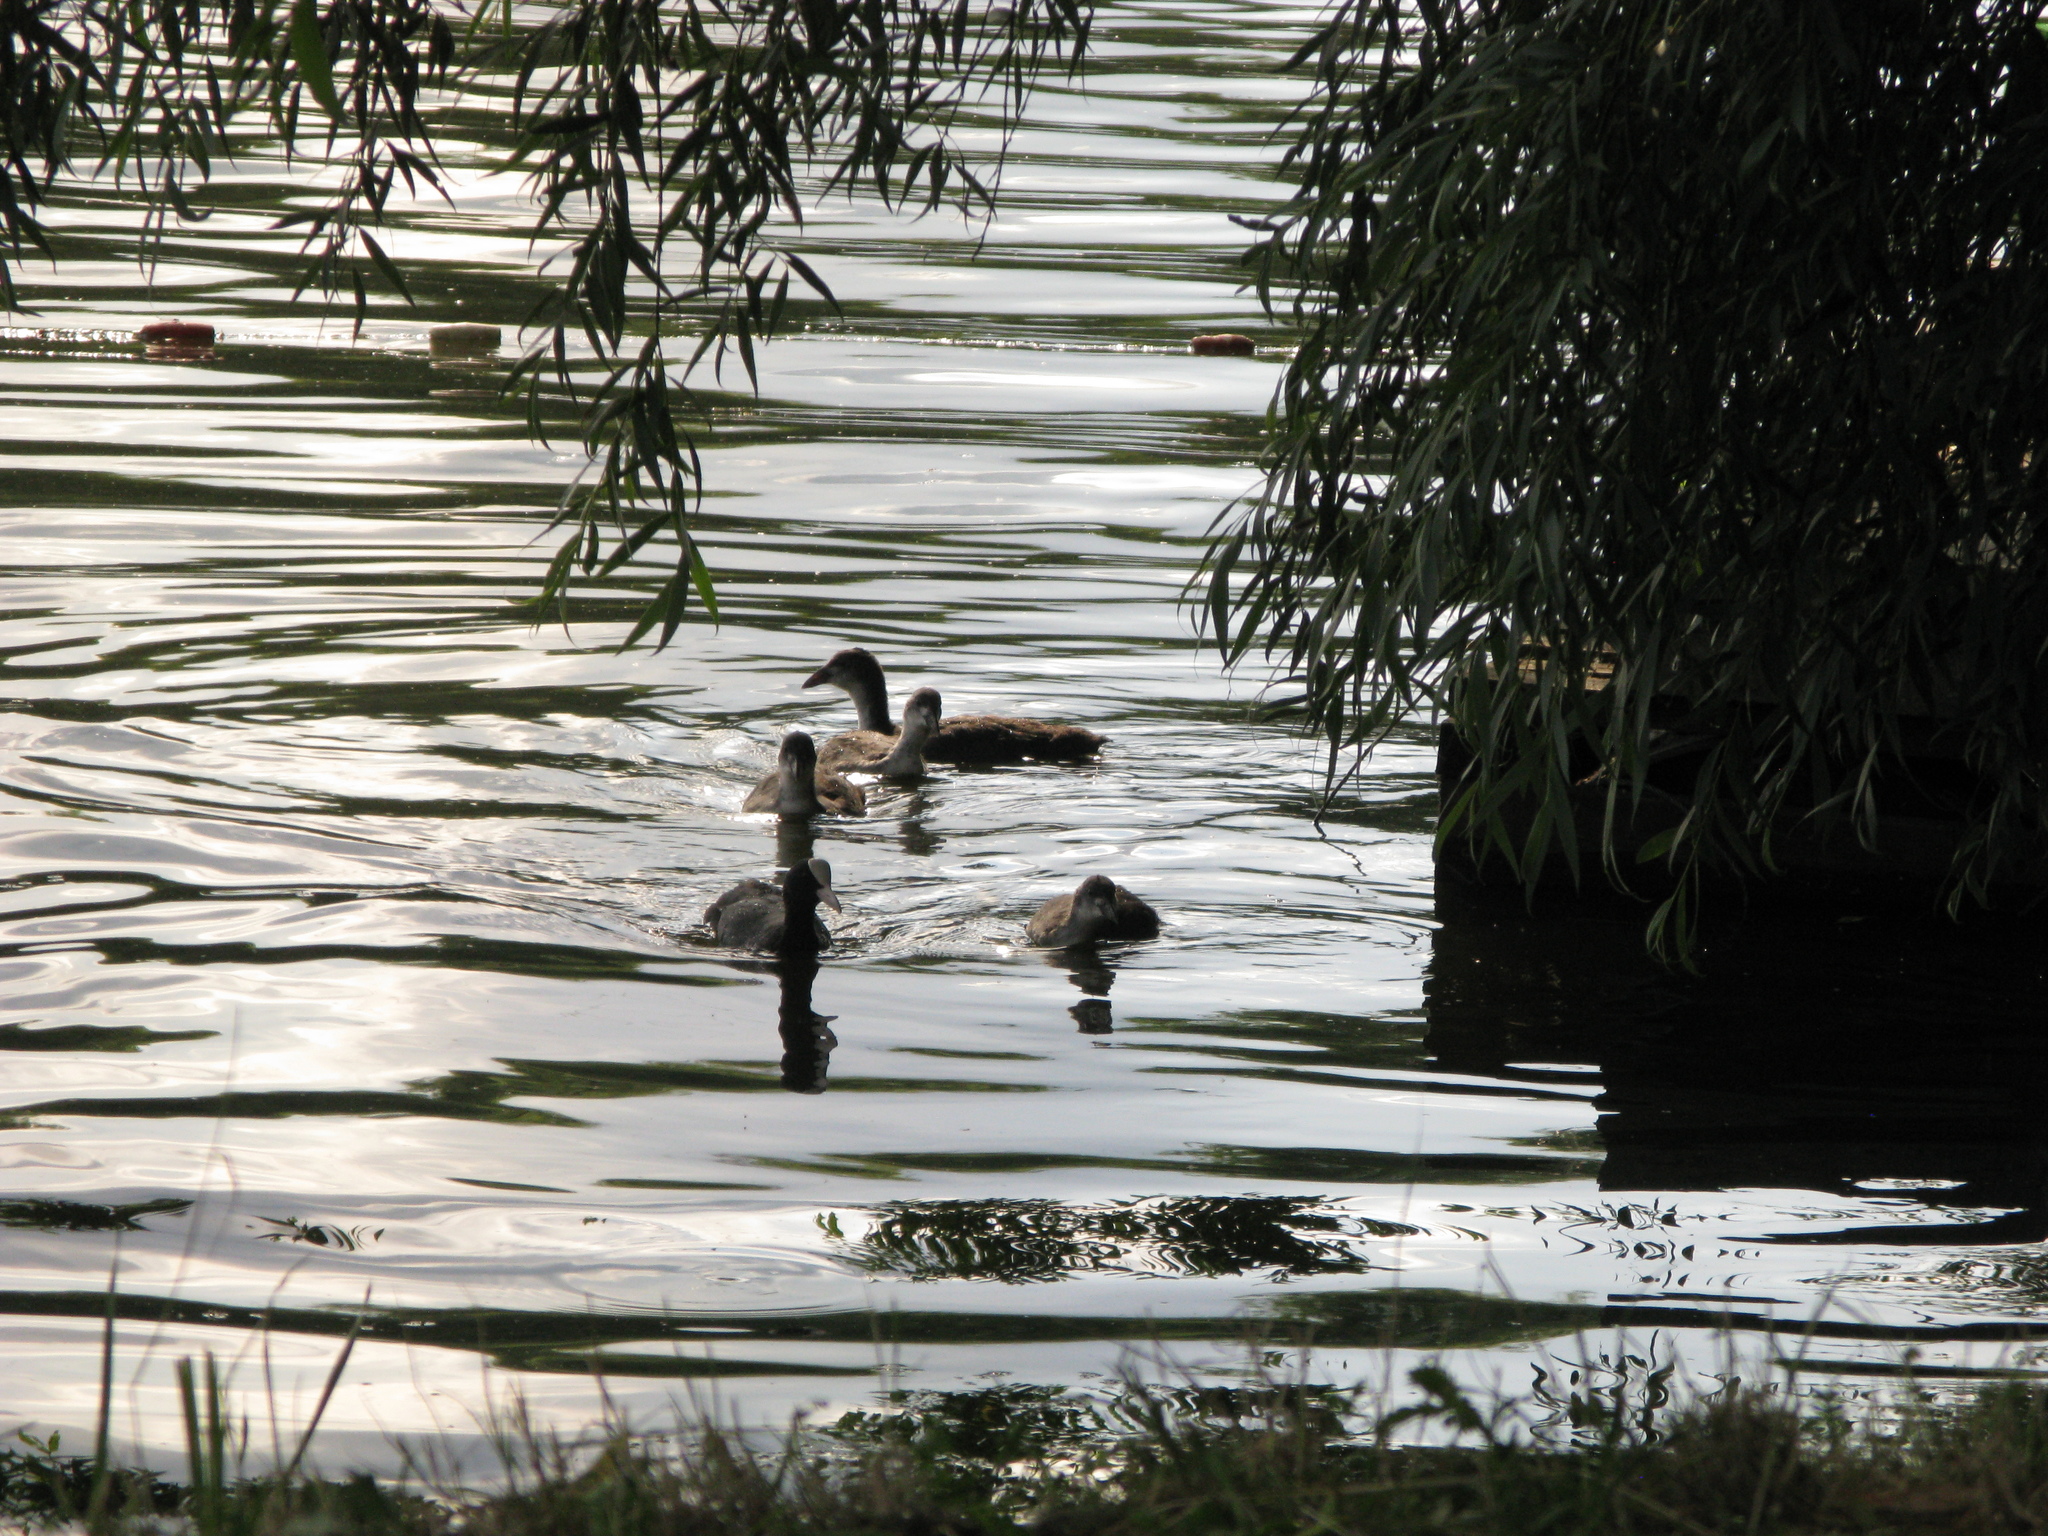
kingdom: Animalia
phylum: Chordata
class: Aves
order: Gruiformes
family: Rallidae
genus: Fulica
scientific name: Fulica atra
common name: Eurasian coot
